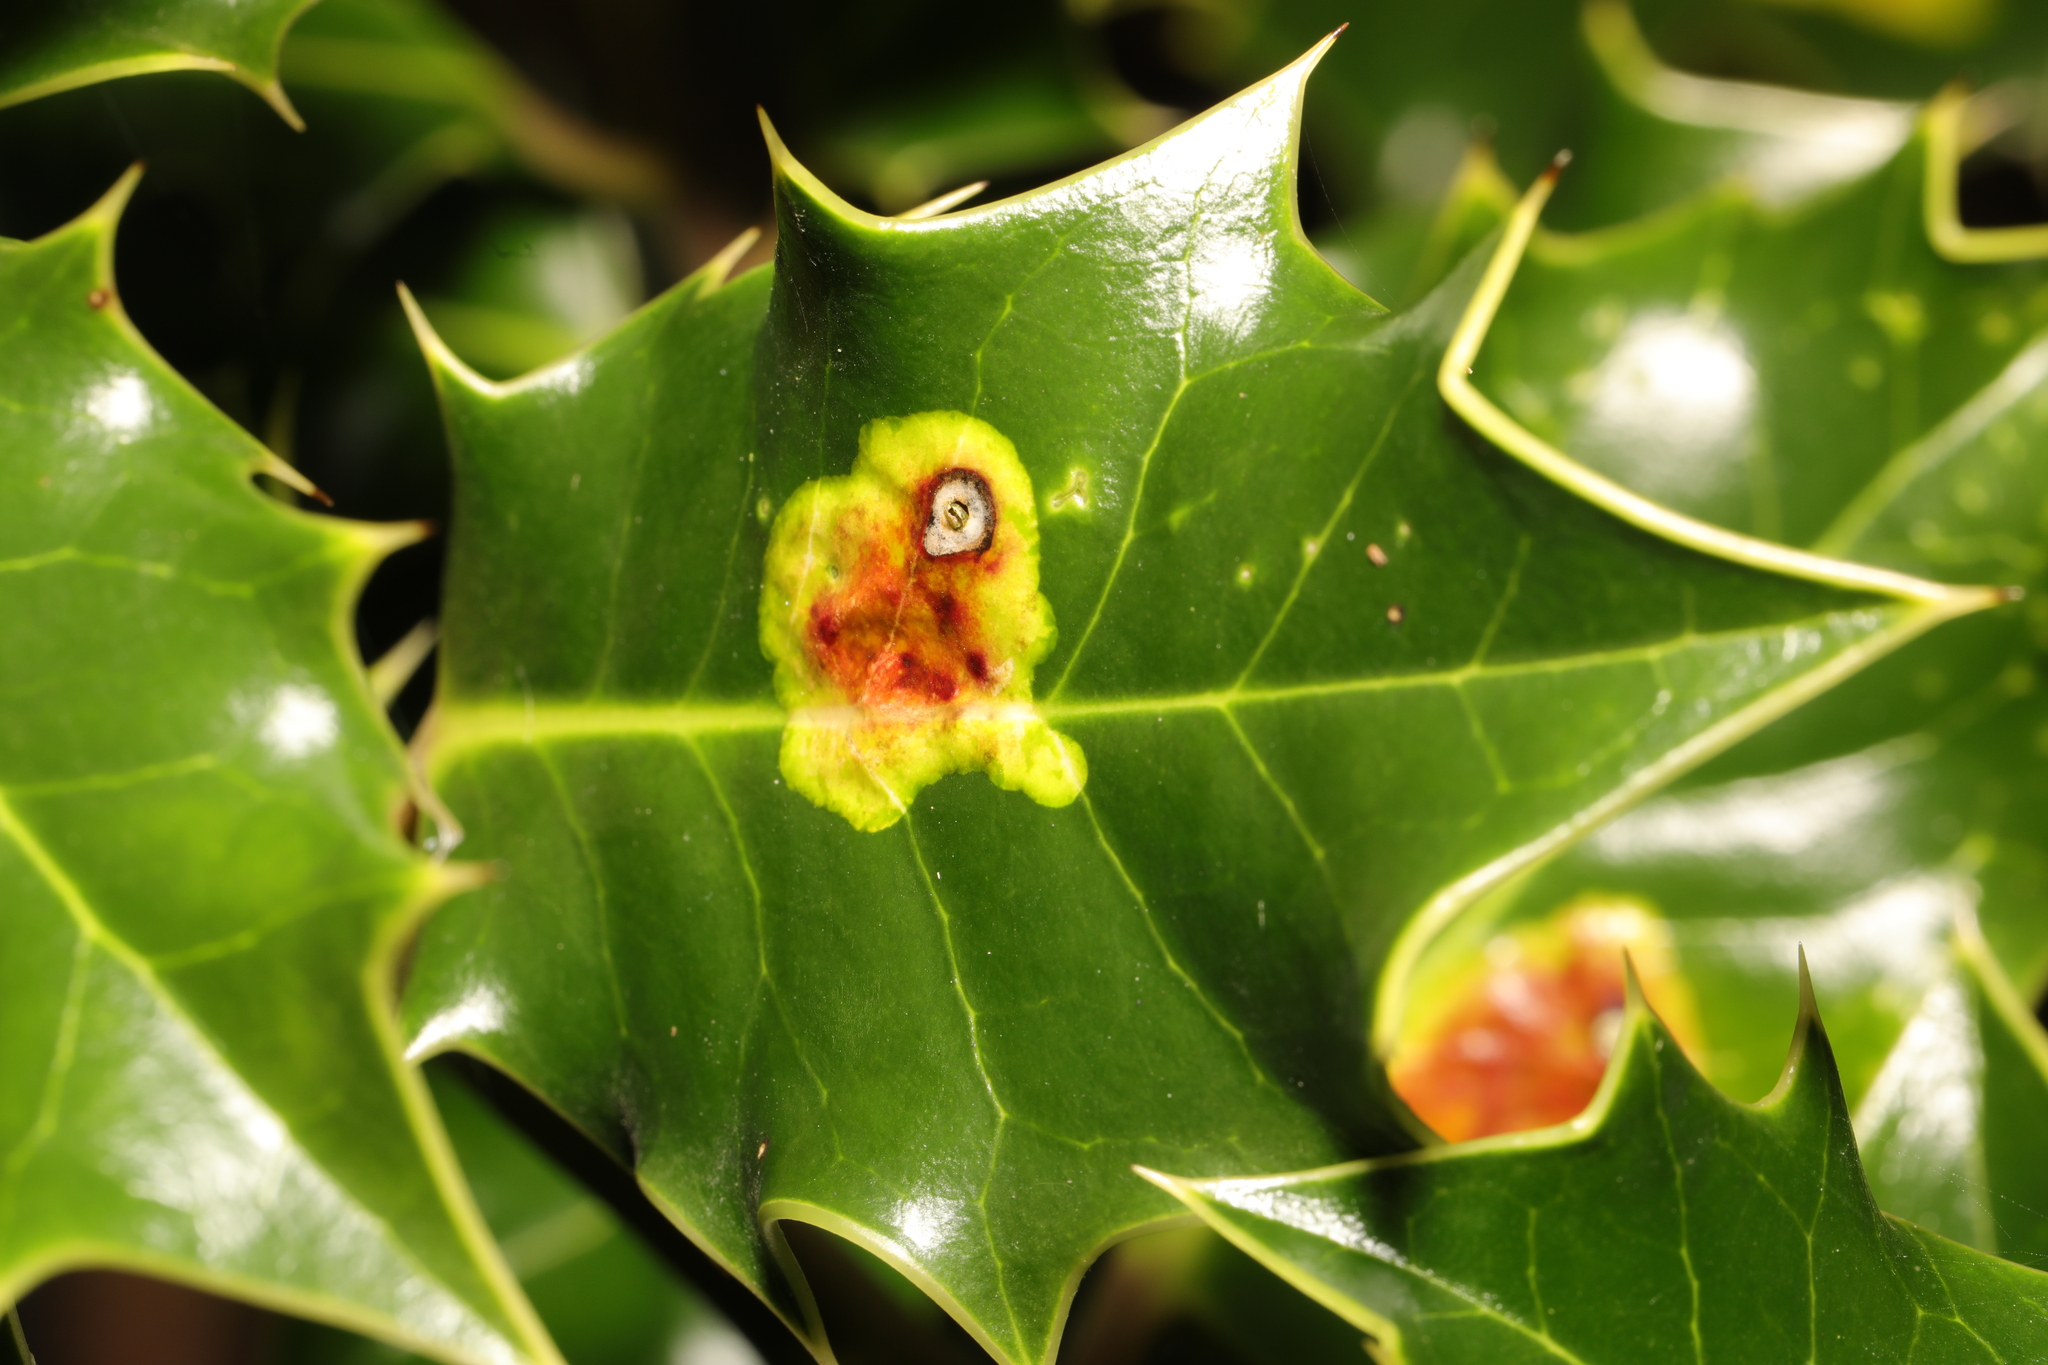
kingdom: Animalia
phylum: Arthropoda
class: Insecta
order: Diptera
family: Agromyzidae
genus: Phytomyza
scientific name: Phytomyza ilicis
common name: Holly leafminer
